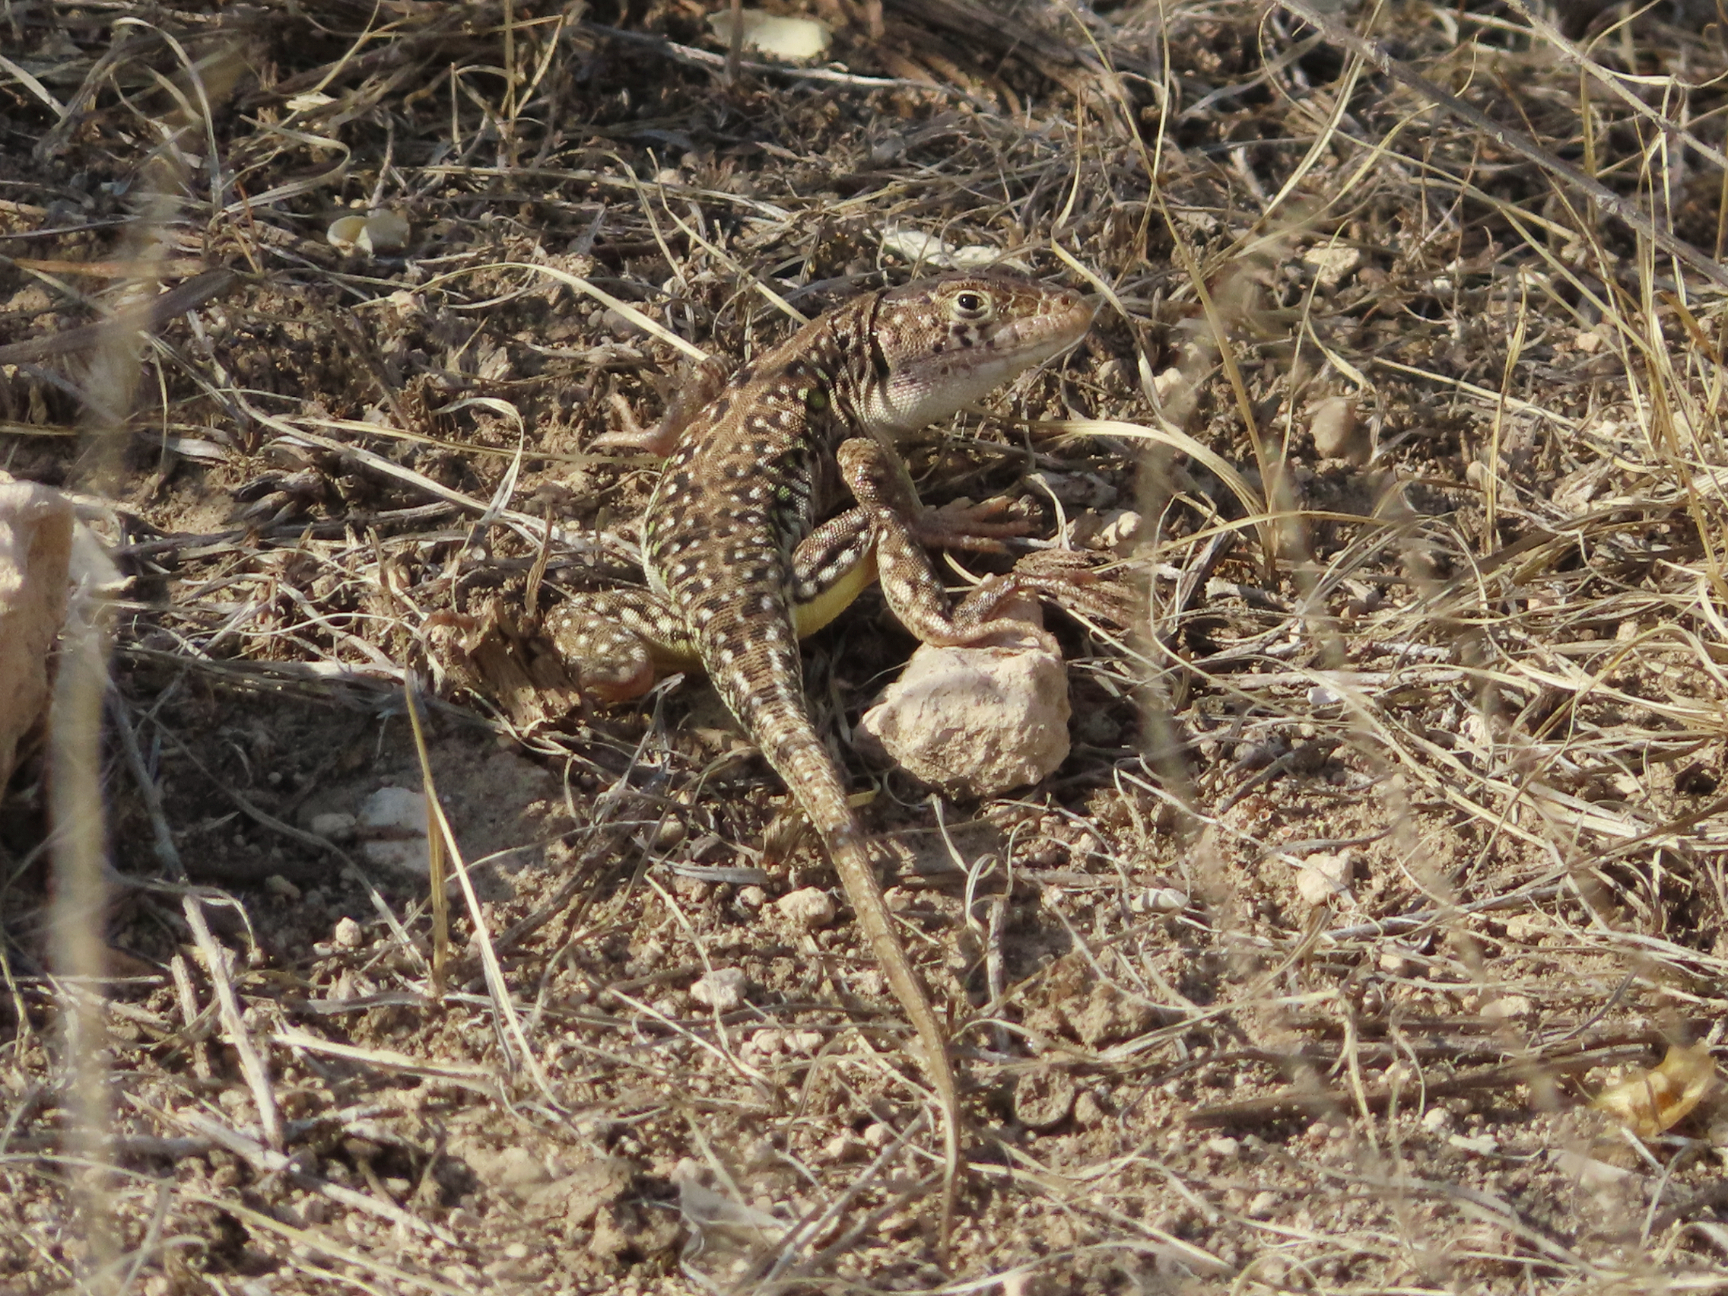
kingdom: Animalia
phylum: Chordata
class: Squamata
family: Lacertidae
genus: Eremias
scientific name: Eremias strauchi
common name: Strauch's racerunner
